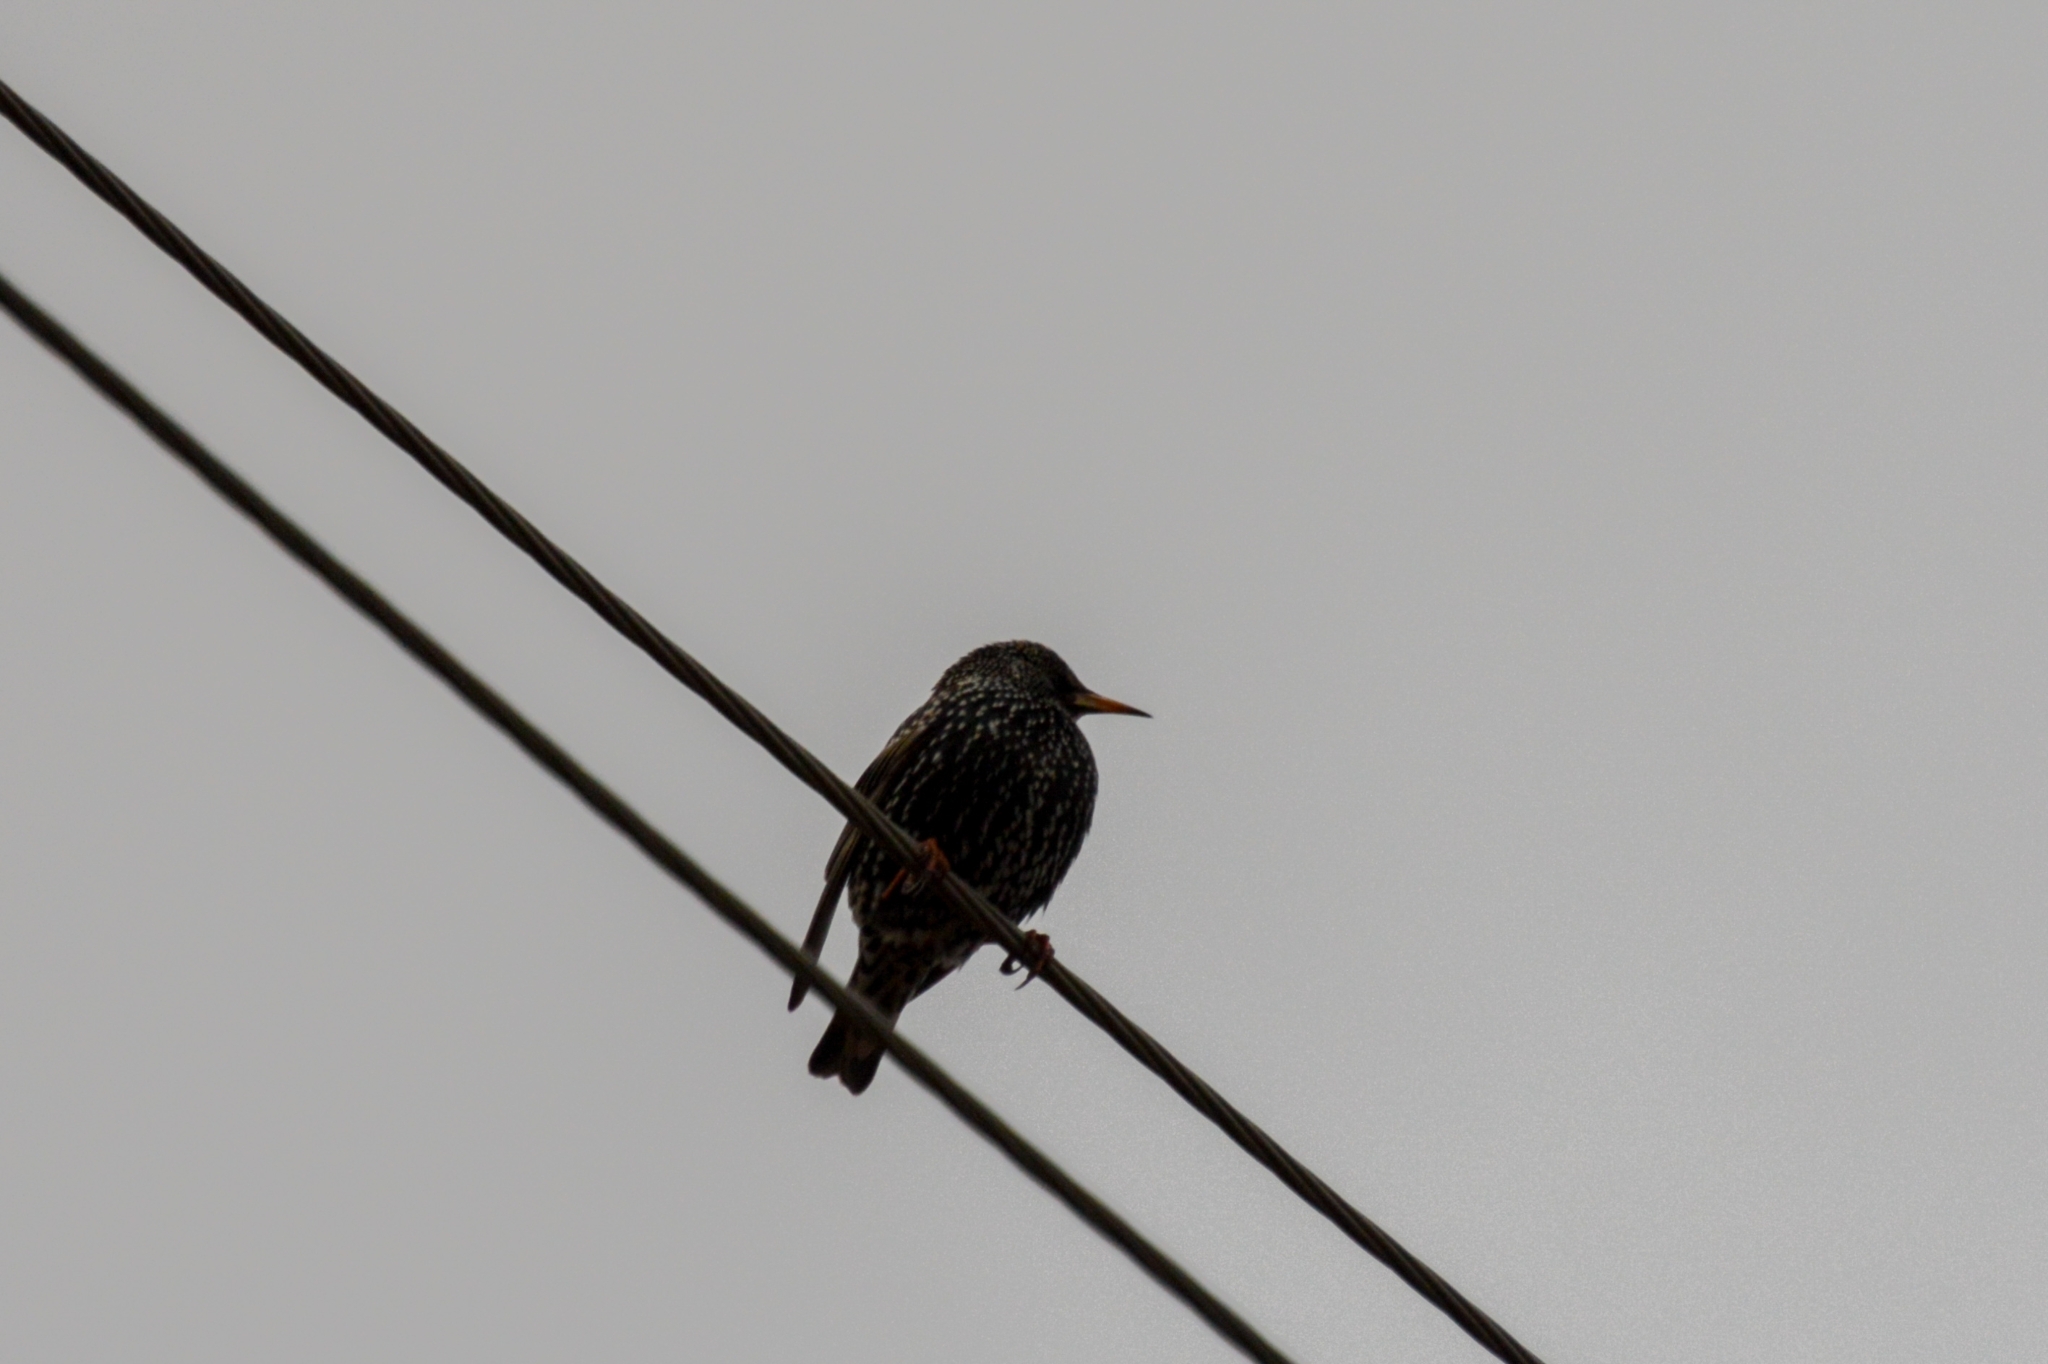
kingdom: Animalia
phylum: Chordata
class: Aves
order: Passeriformes
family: Sturnidae
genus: Sturnus
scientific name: Sturnus vulgaris
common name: Common starling
